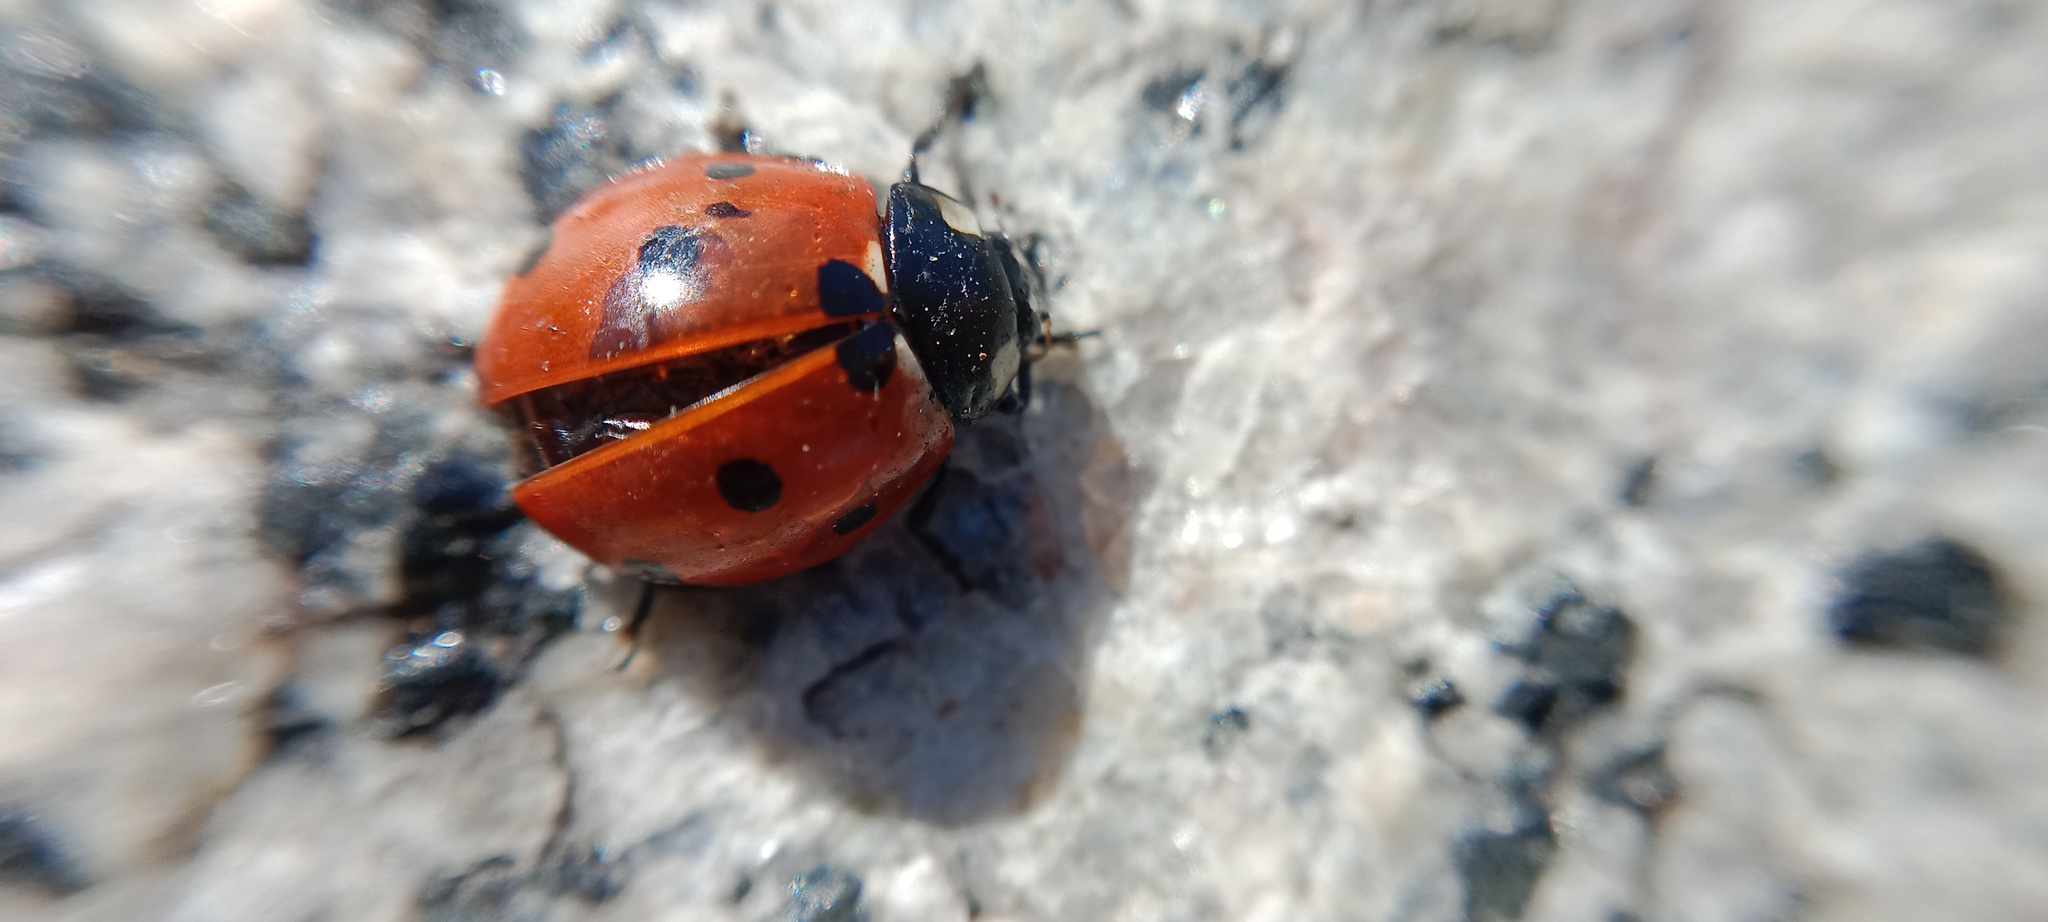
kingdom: Animalia
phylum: Arthropoda
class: Insecta
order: Coleoptera
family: Coccinellidae
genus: Coccinella
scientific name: Coccinella septempunctata
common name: Sevenspotted lady beetle
